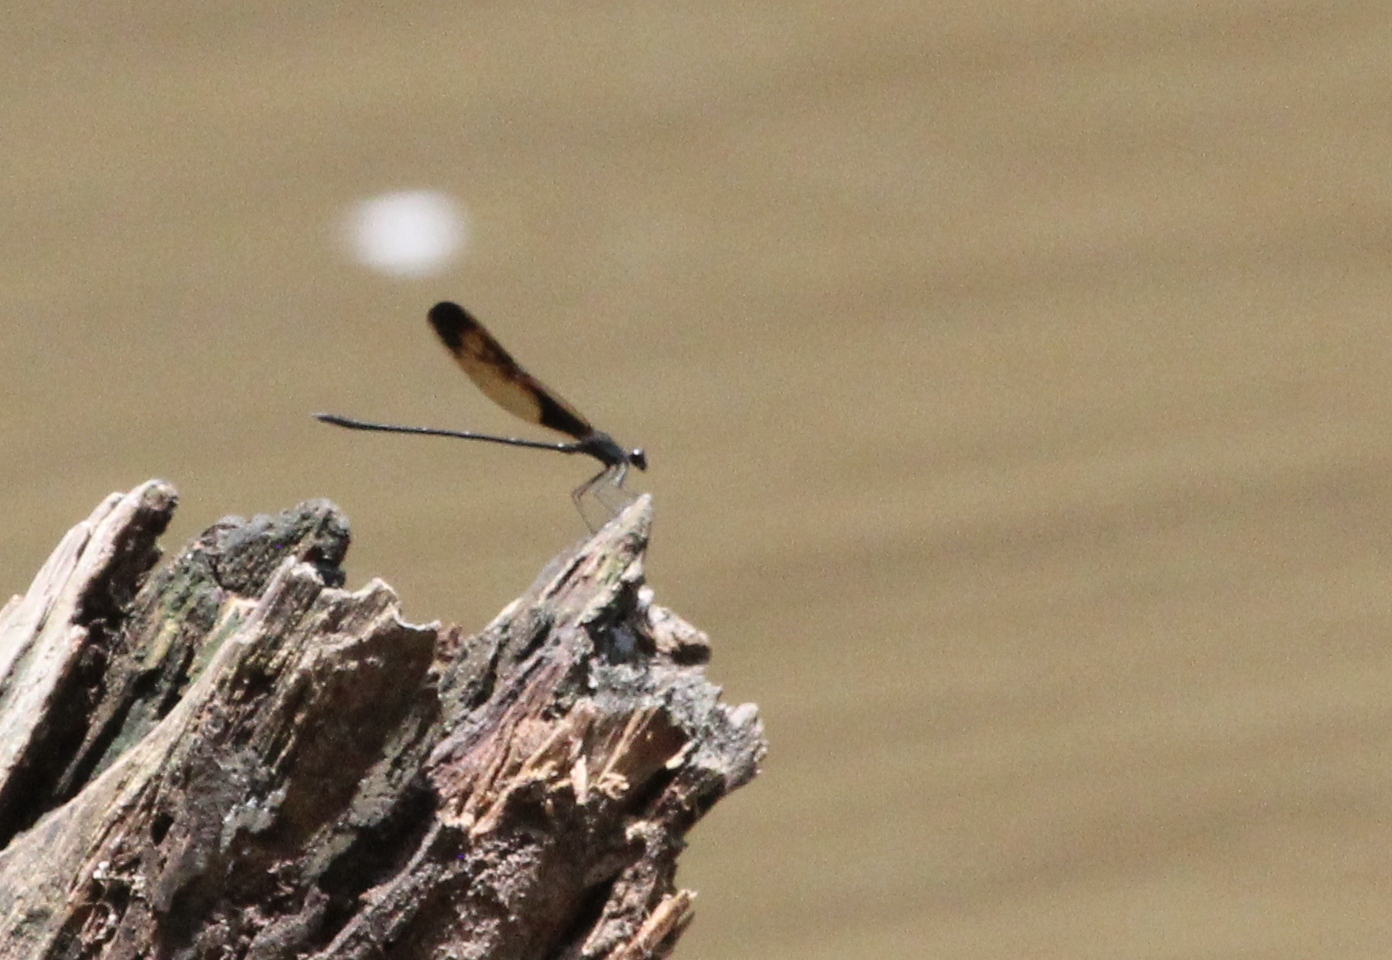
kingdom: Animalia
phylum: Arthropoda
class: Insecta
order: Odonata
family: Calopterygidae
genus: Hetaerina
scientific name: Hetaerina titia
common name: Smoky rubyspot
